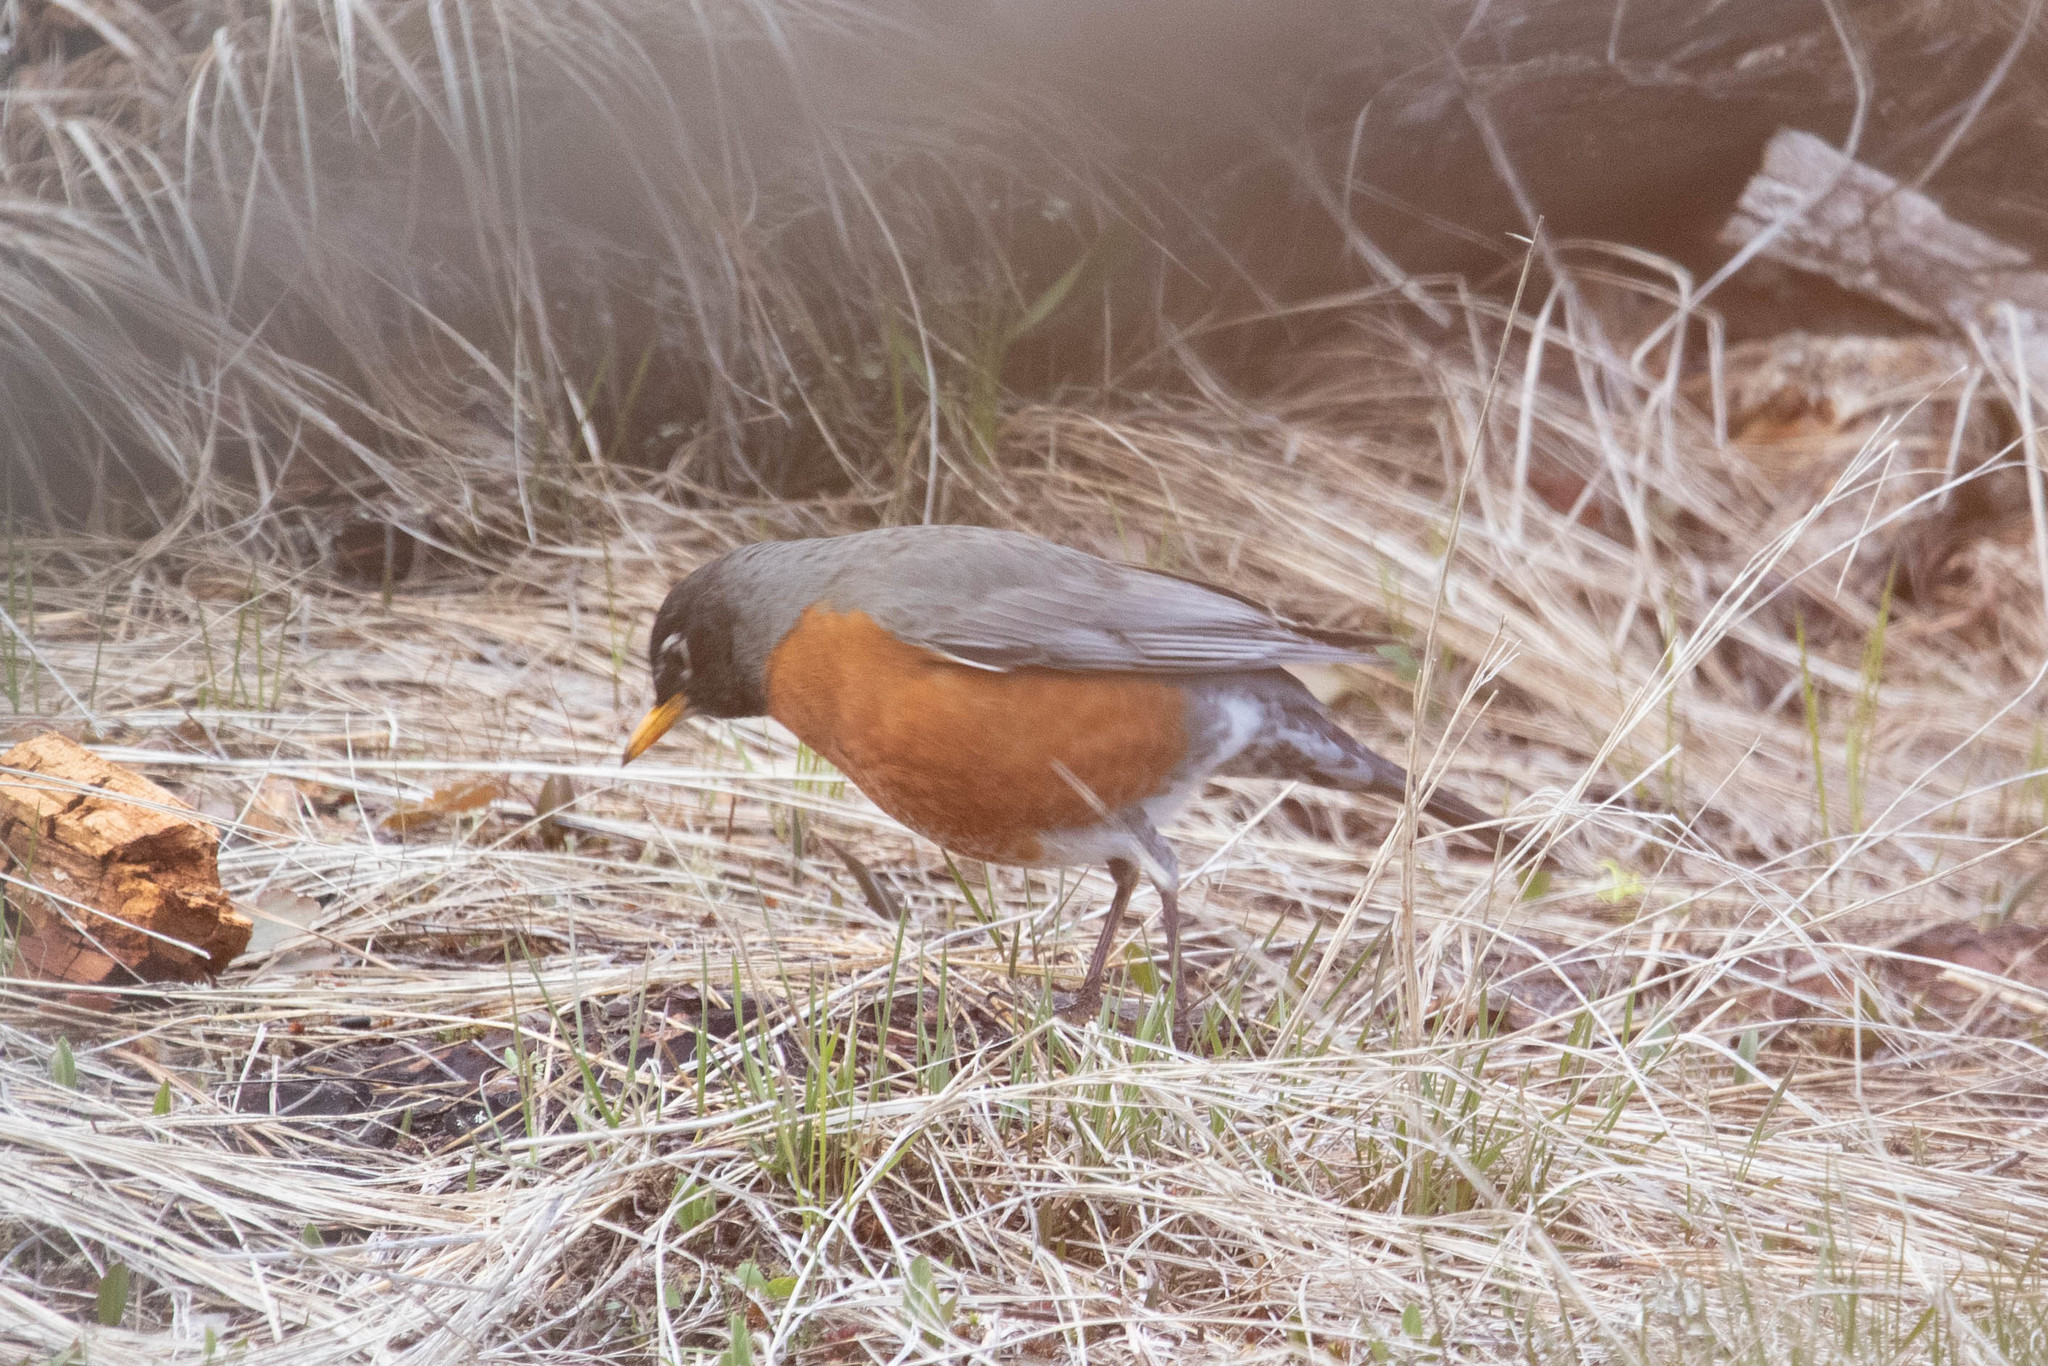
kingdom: Animalia
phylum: Chordata
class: Aves
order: Passeriformes
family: Turdidae
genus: Turdus
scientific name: Turdus migratorius
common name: American robin
